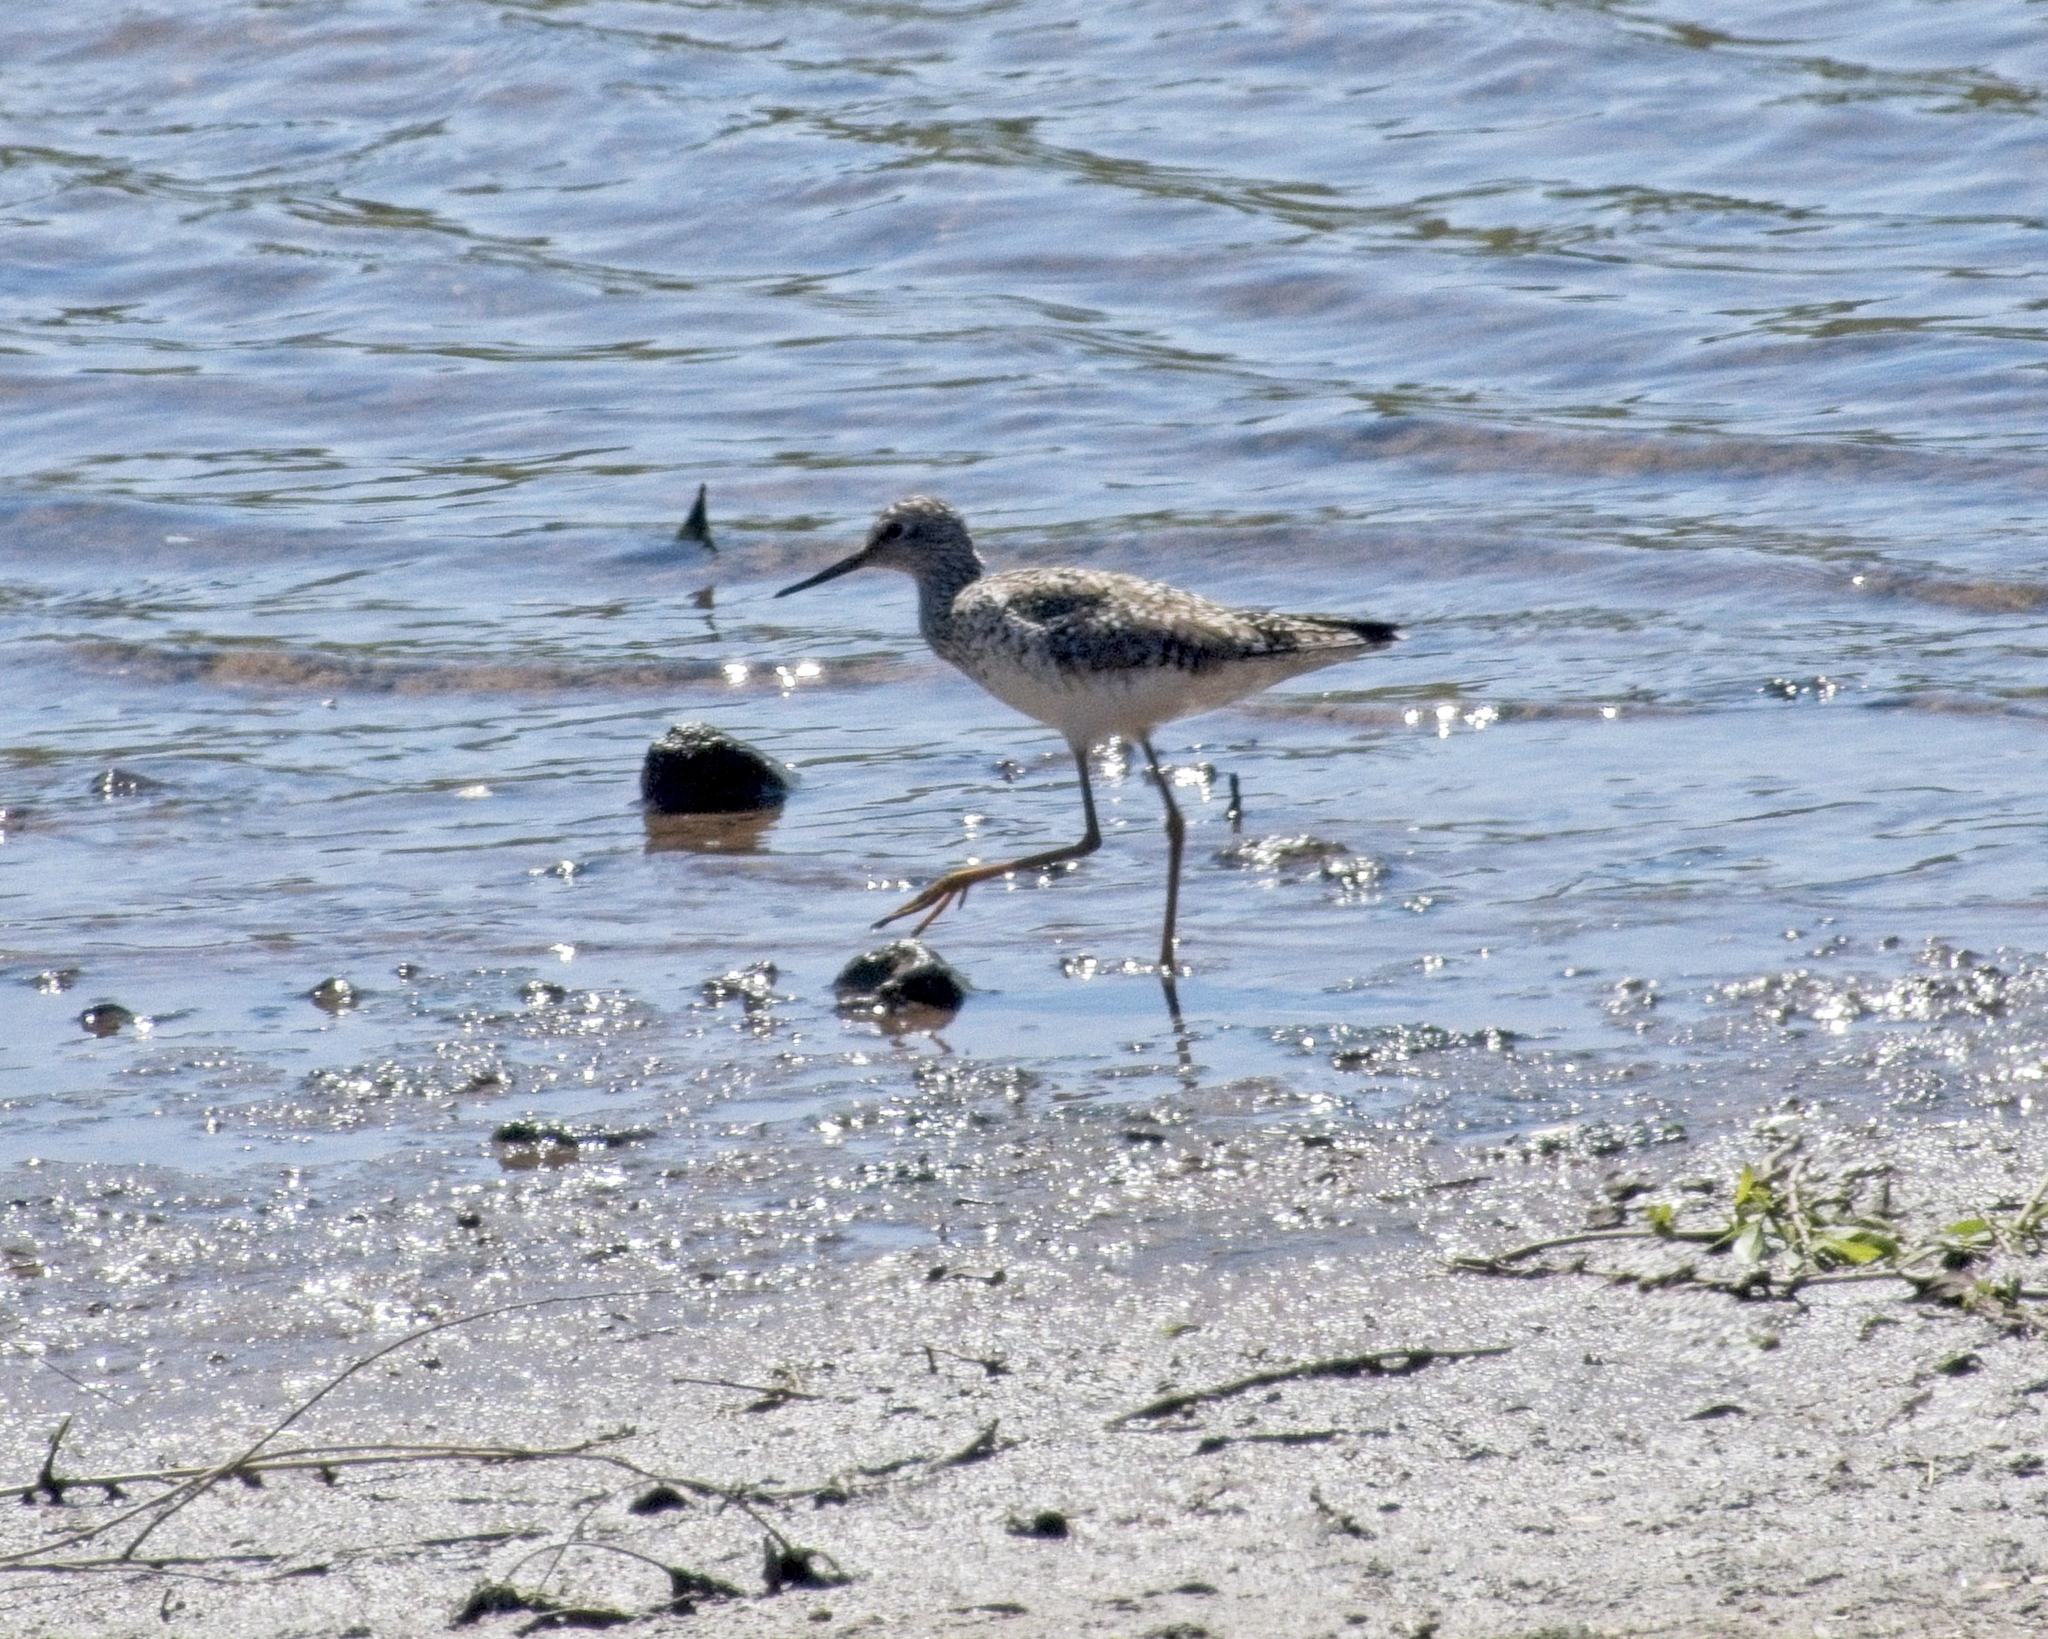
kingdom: Animalia
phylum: Chordata
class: Aves
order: Charadriiformes
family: Scolopacidae
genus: Tringa
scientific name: Tringa flavipes
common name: Lesser yellowlegs
